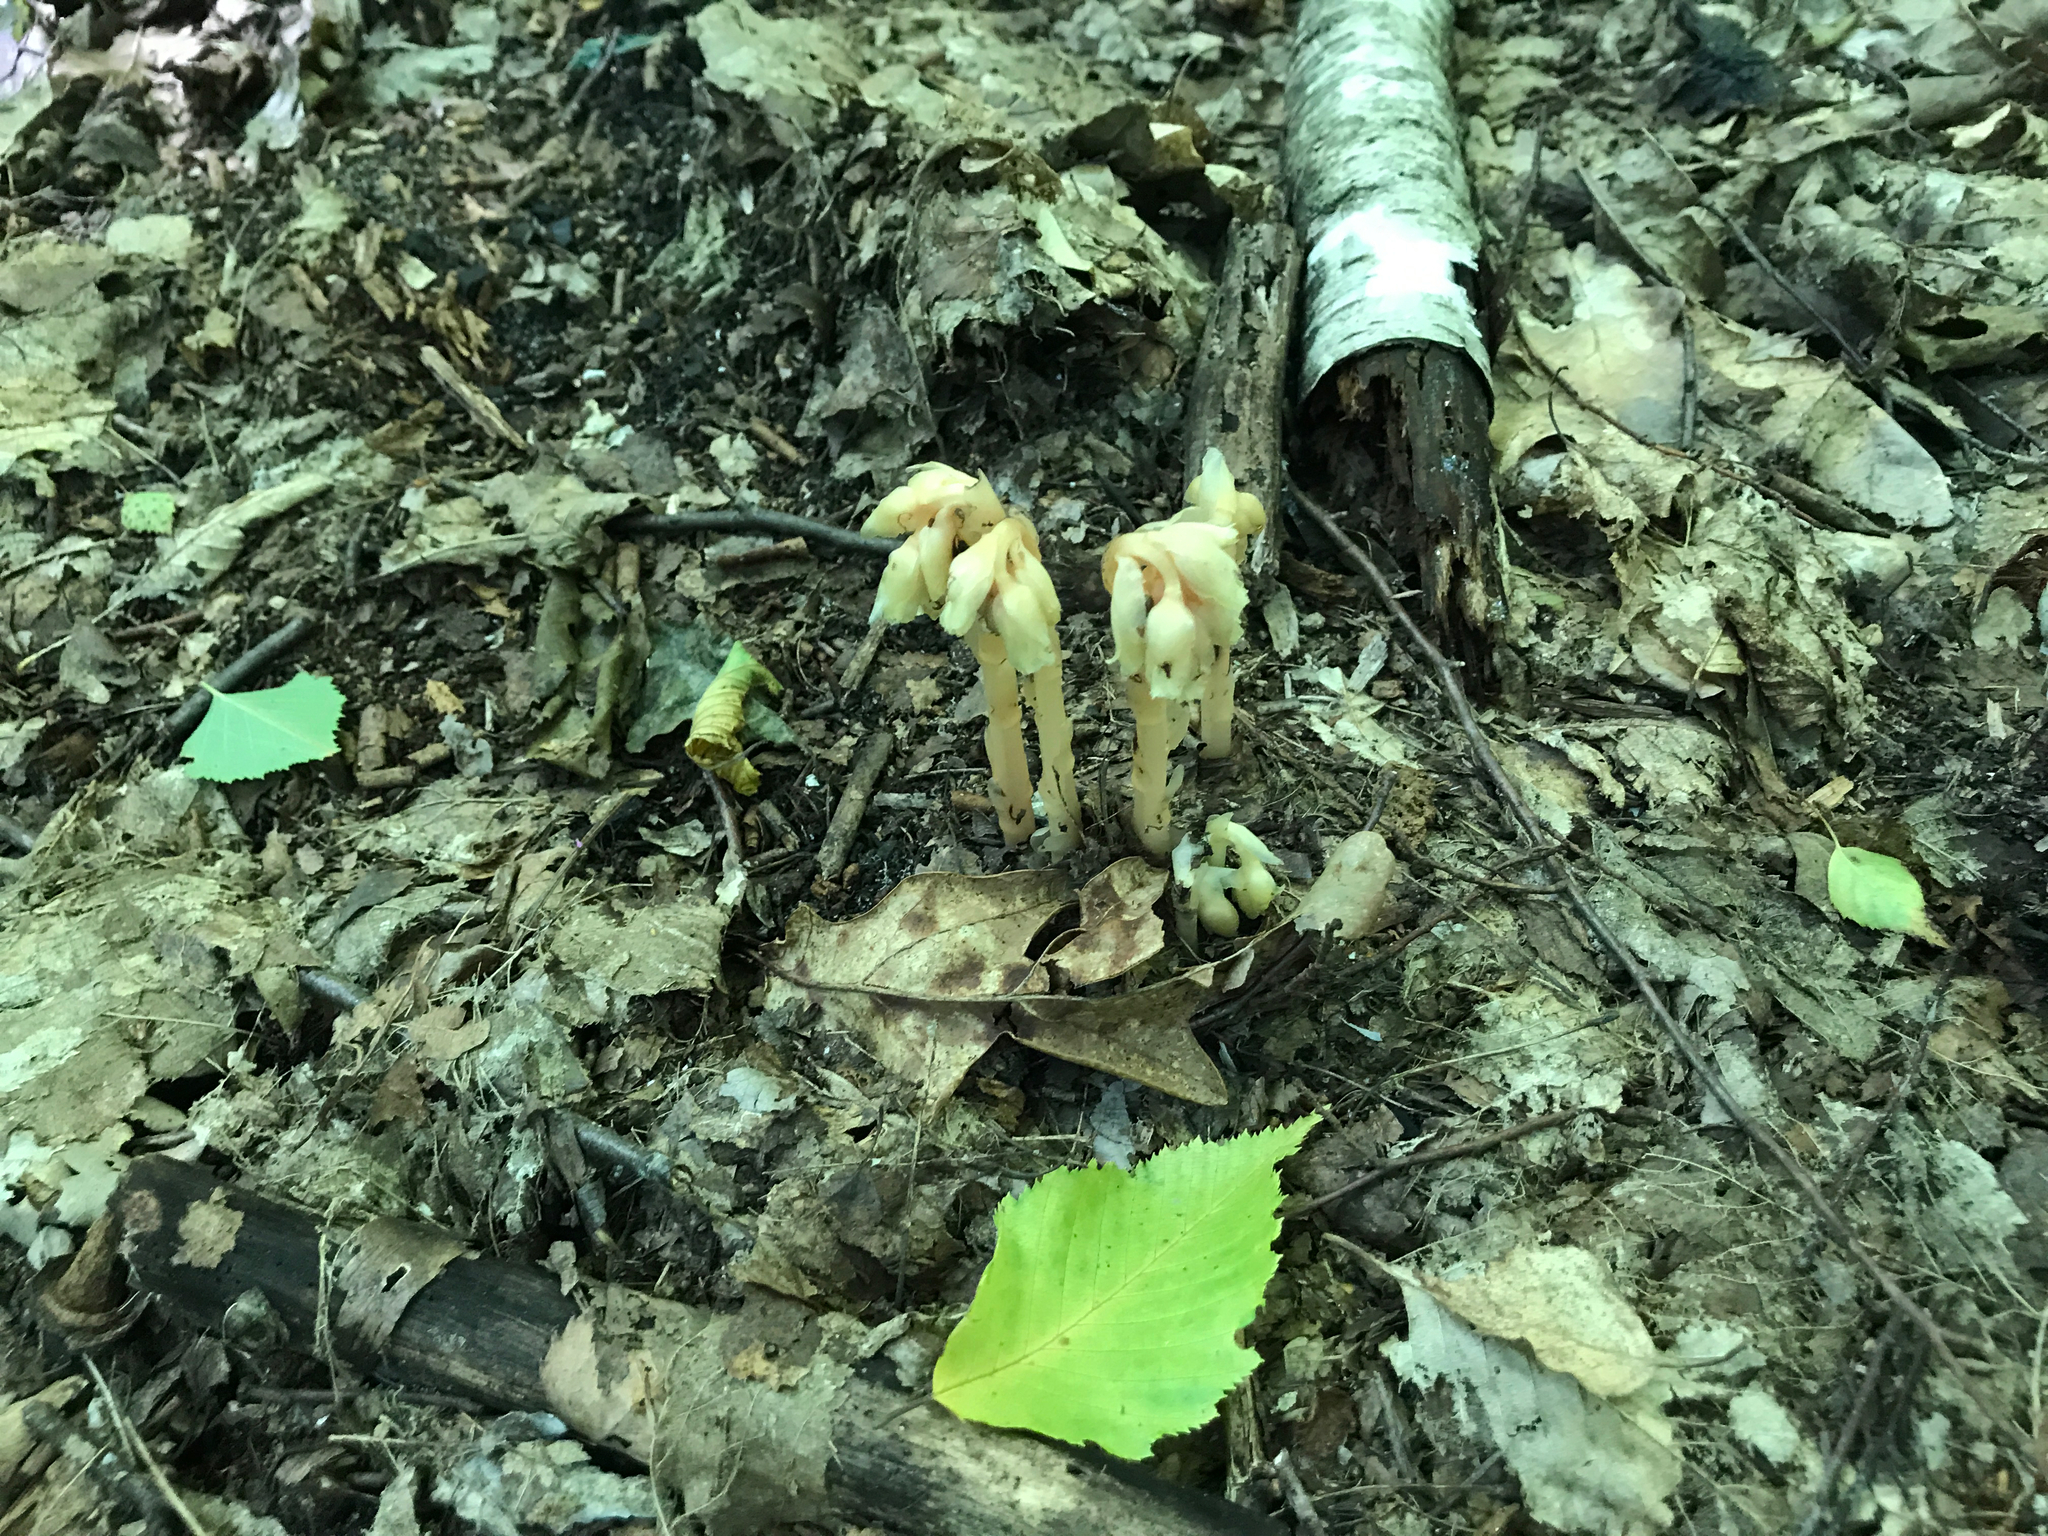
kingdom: Plantae
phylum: Tracheophyta
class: Magnoliopsida
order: Ericales
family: Ericaceae
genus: Hypopitys
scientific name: Hypopitys monotropa
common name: Yellow bird's-nest
